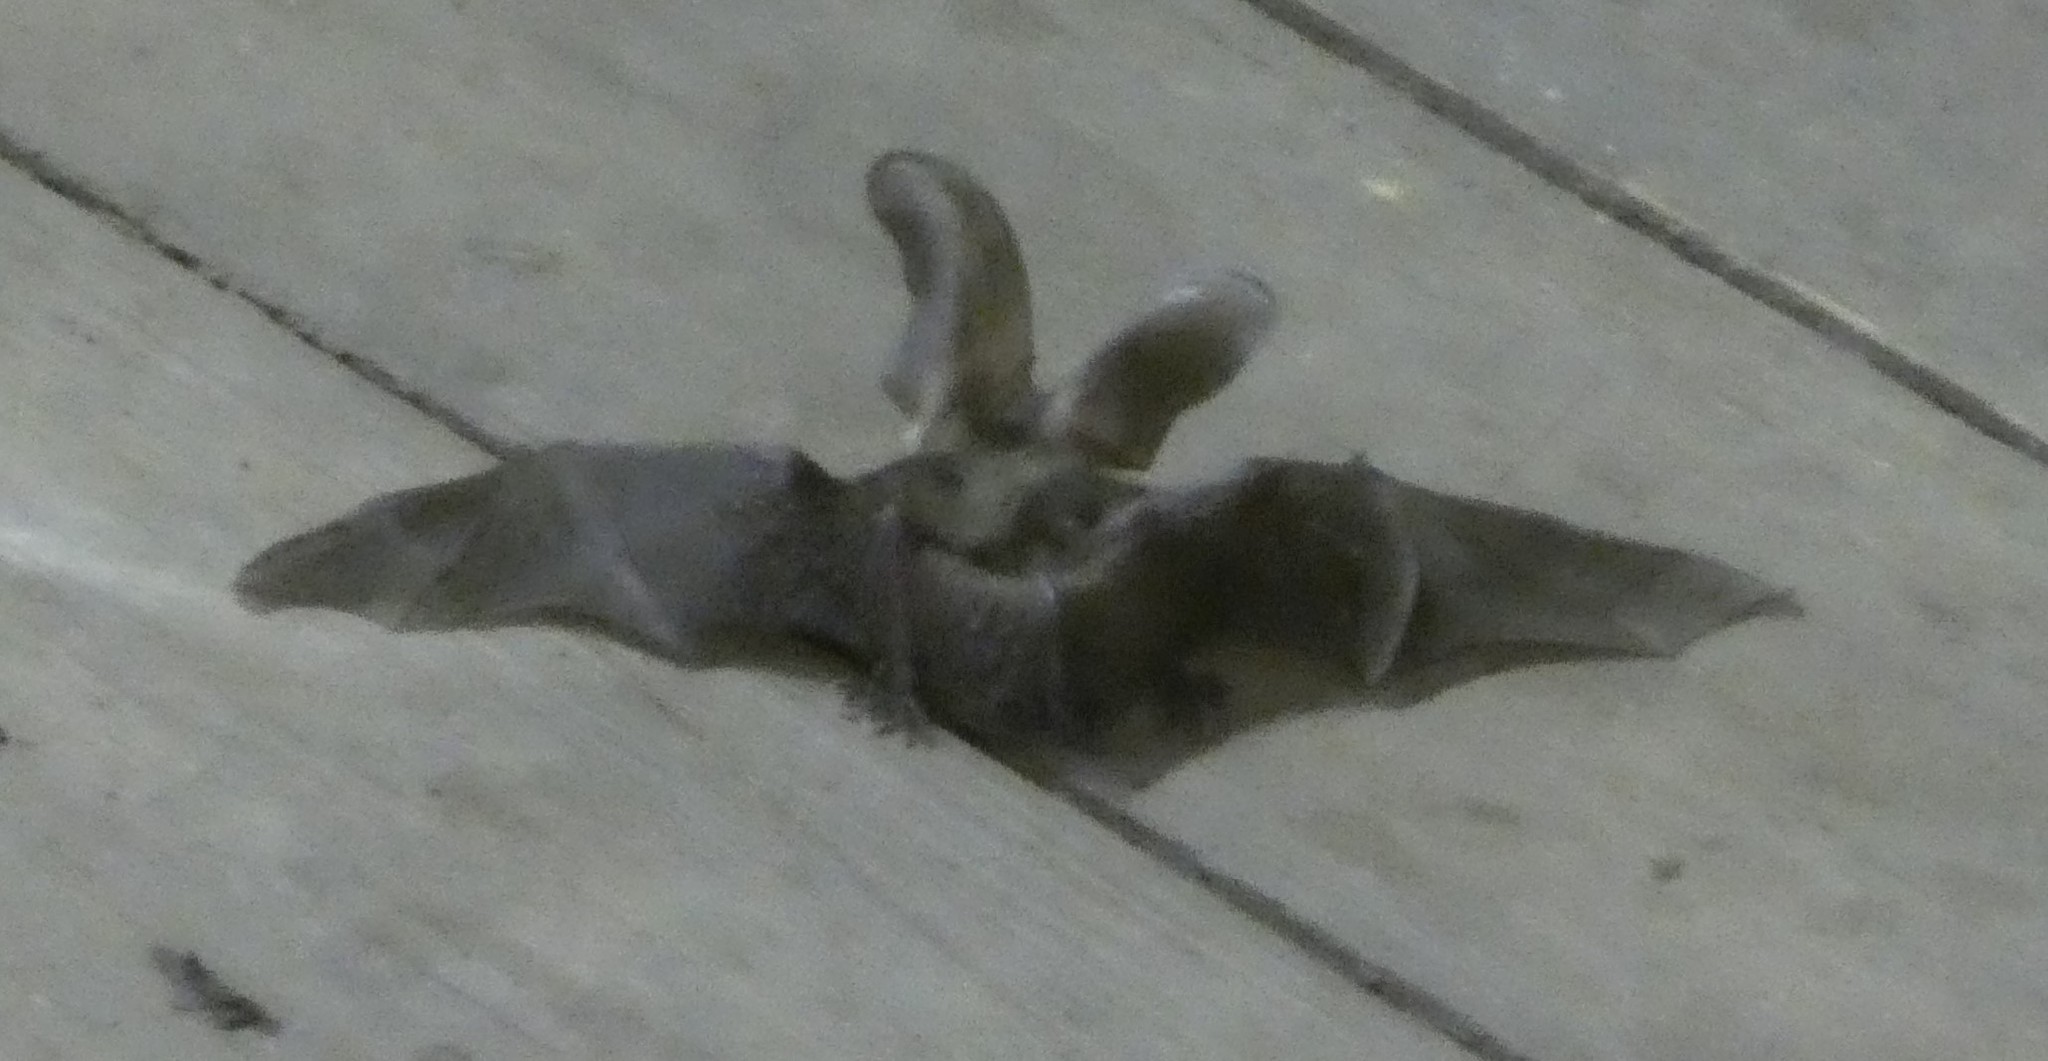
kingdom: Animalia
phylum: Chordata
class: Mammalia
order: Chiroptera
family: Vespertilionidae
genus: Plecotus
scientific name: Plecotus auritus
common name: Brown long-eared bat
